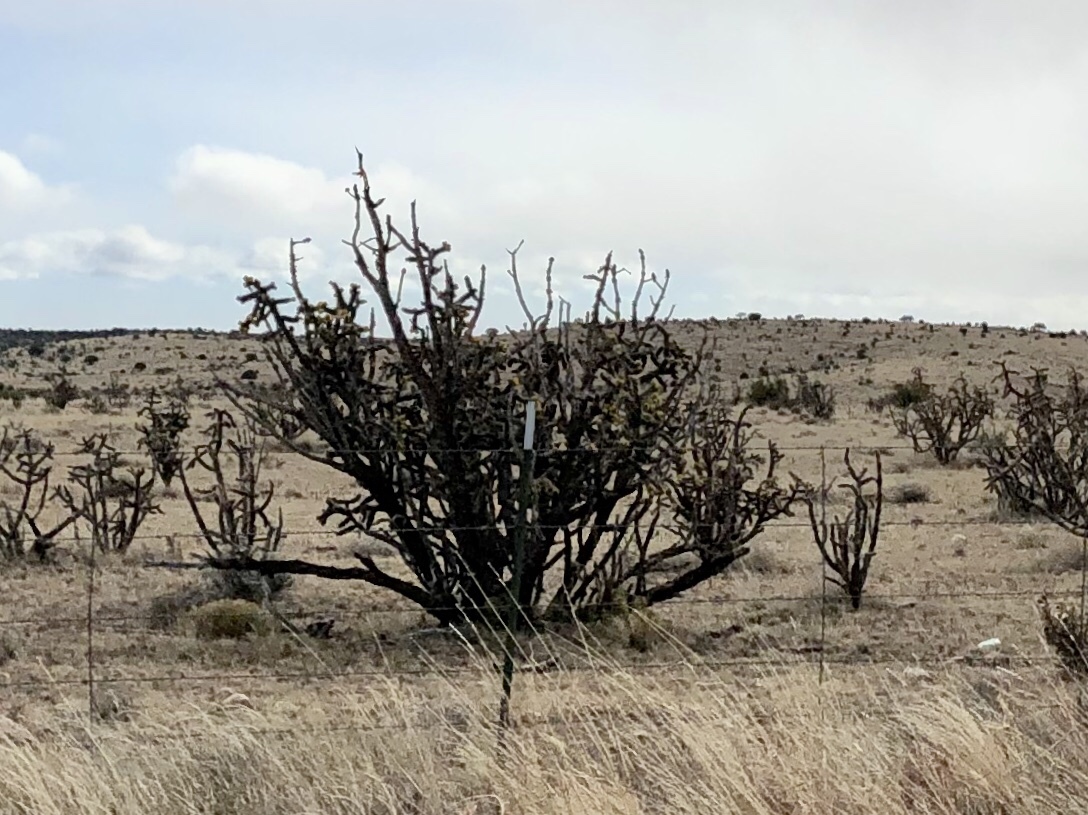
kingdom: Plantae
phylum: Tracheophyta
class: Magnoliopsida
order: Caryophyllales
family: Cactaceae
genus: Cylindropuntia
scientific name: Cylindropuntia imbricata
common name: Candelabrum cactus
